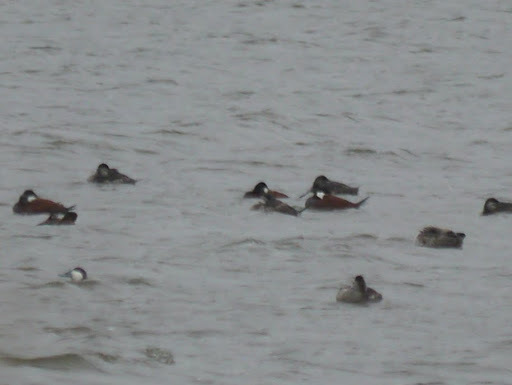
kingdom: Animalia
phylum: Chordata
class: Aves
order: Anseriformes
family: Anatidae
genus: Oxyura
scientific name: Oxyura jamaicensis
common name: Ruddy duck
